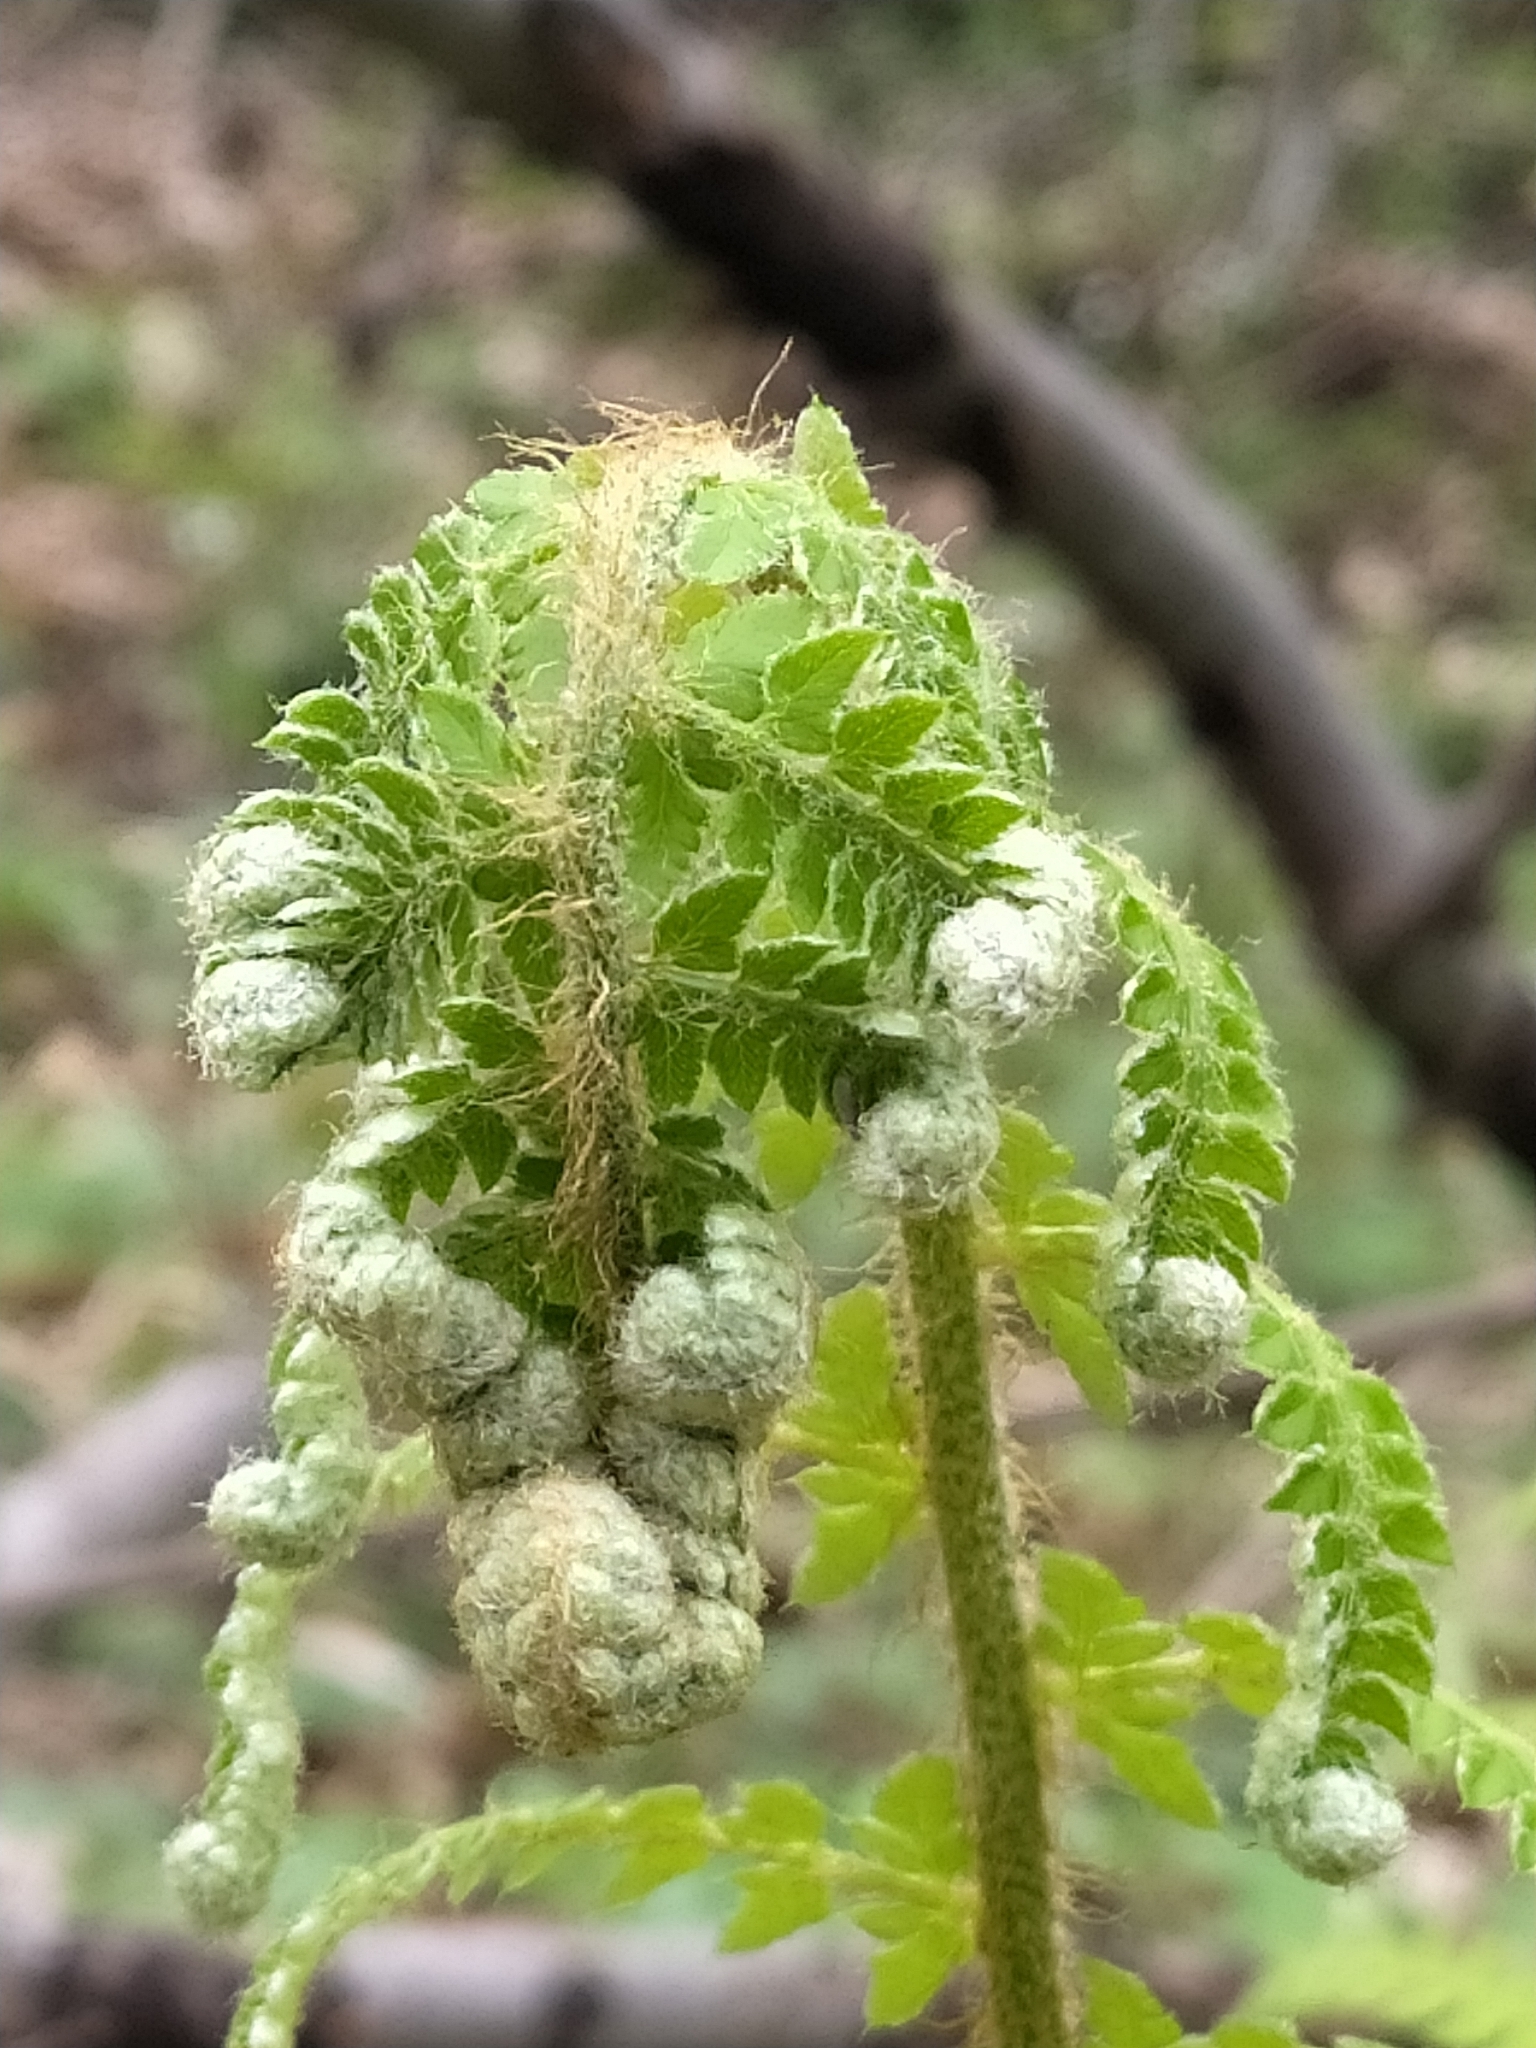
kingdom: Plantae
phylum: Tracheophyta
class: Polypodiopsida
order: Polypodiales
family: Dryopteridaceae
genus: Polystichum
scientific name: Polystichum setiferum
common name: Soft shield-fern
